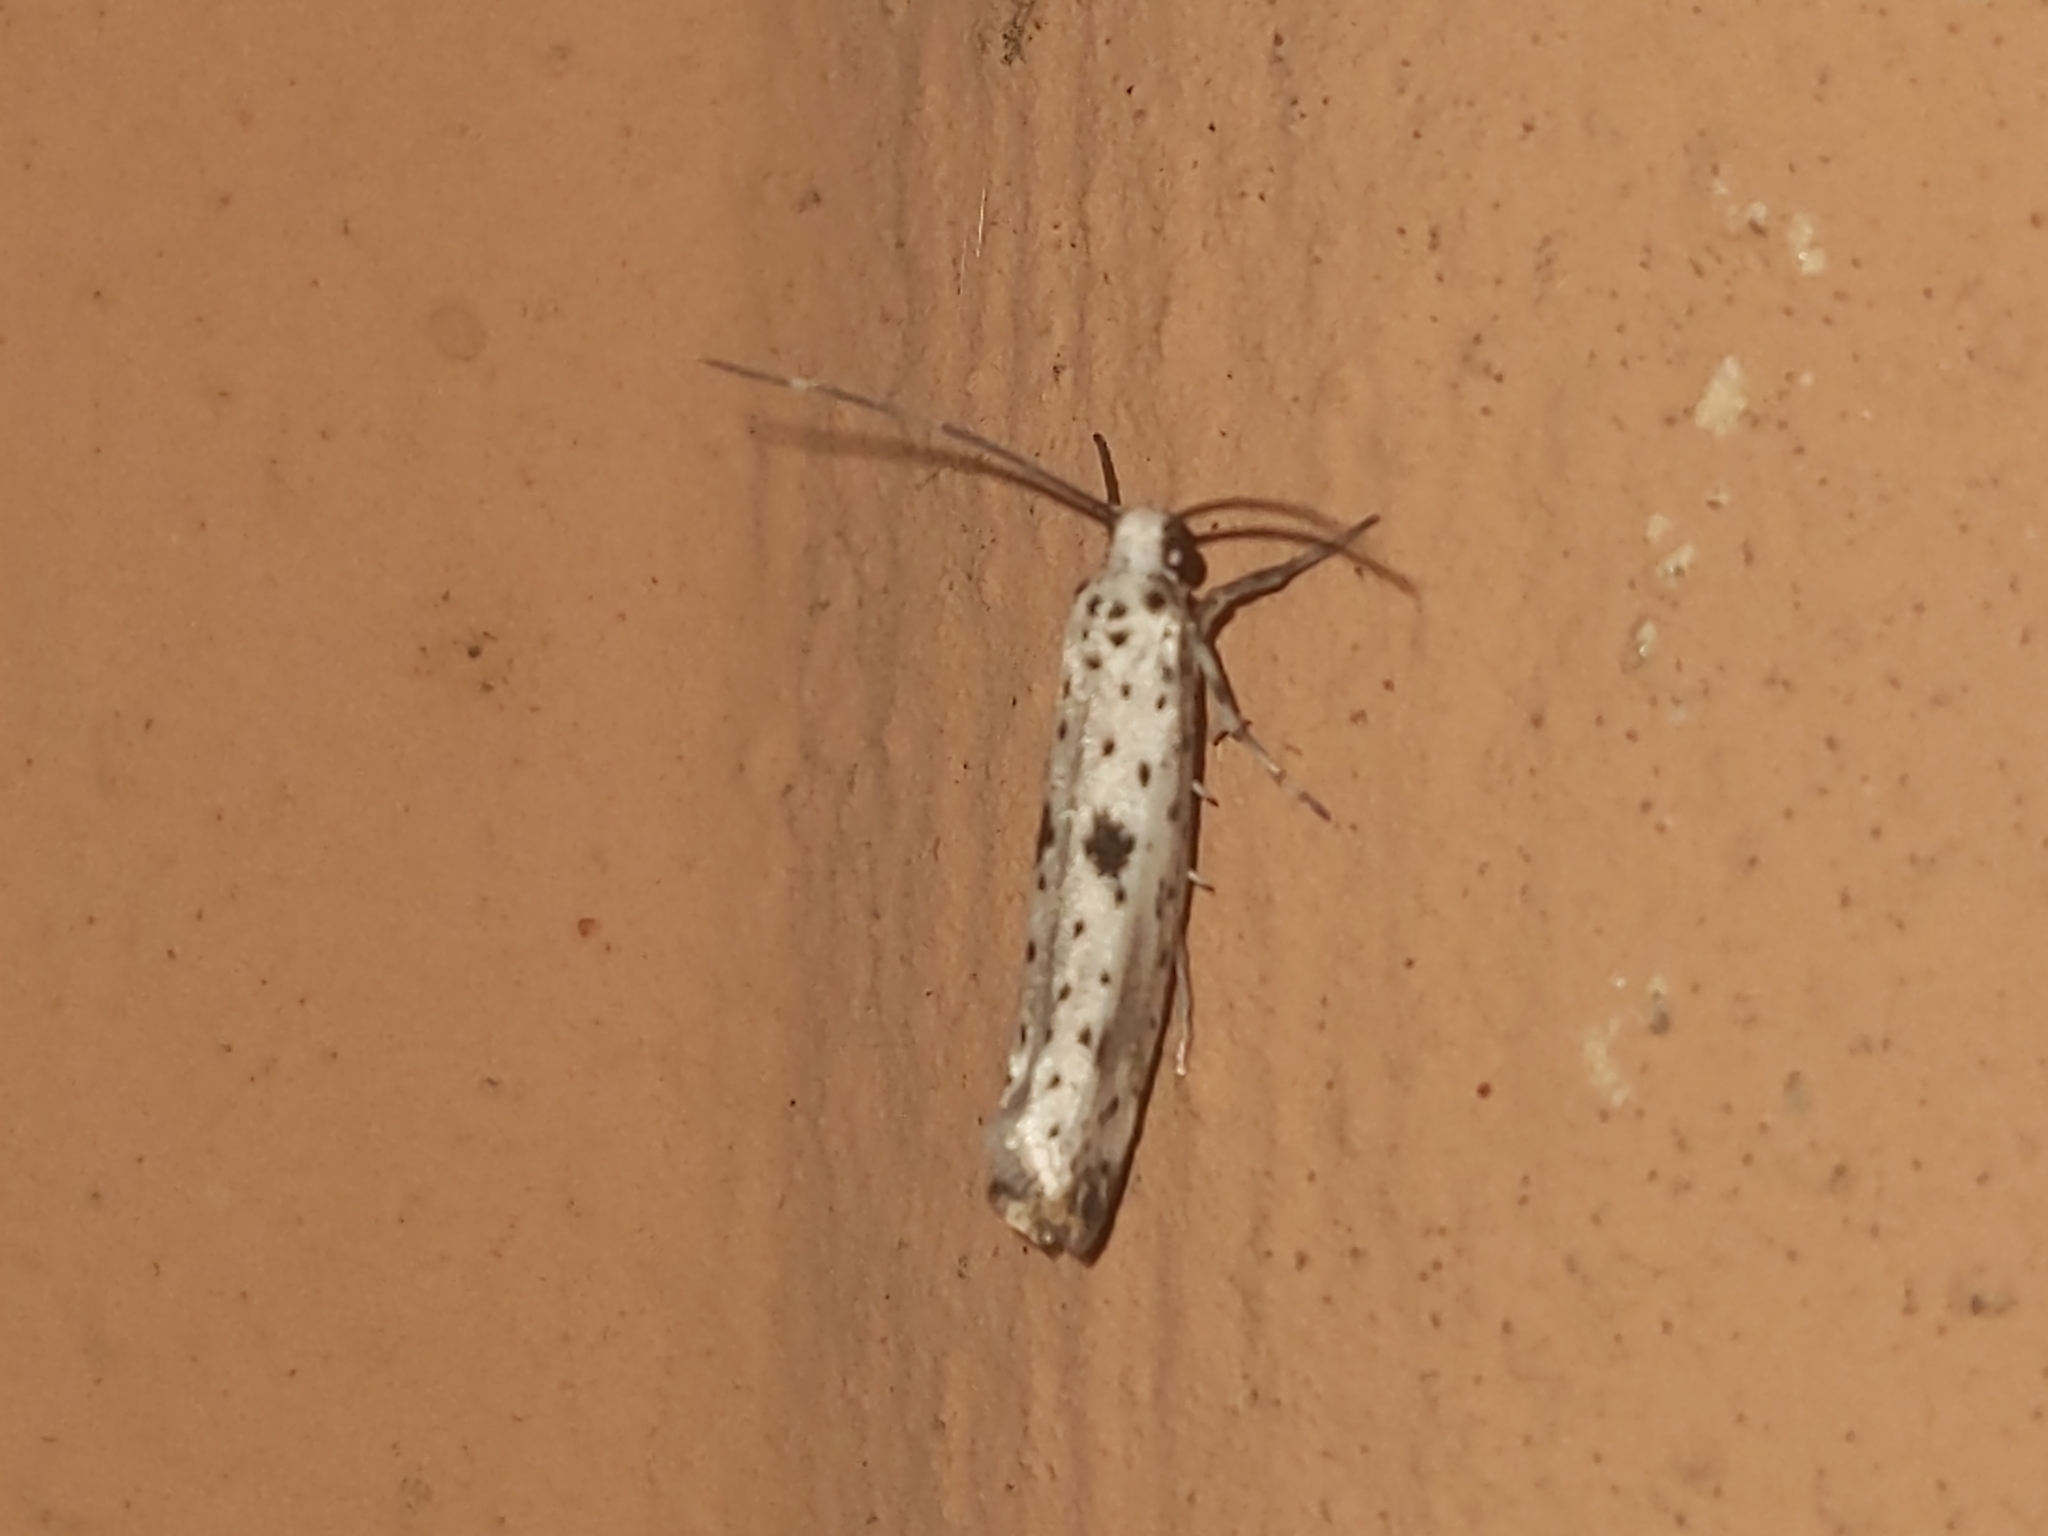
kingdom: Animalia
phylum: Arthropoda
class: Insecta
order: Lepidoptera
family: Yponomeutidae
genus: Yponomeuta
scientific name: Yponomeuta plumbella
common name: Black-tipped ermine
